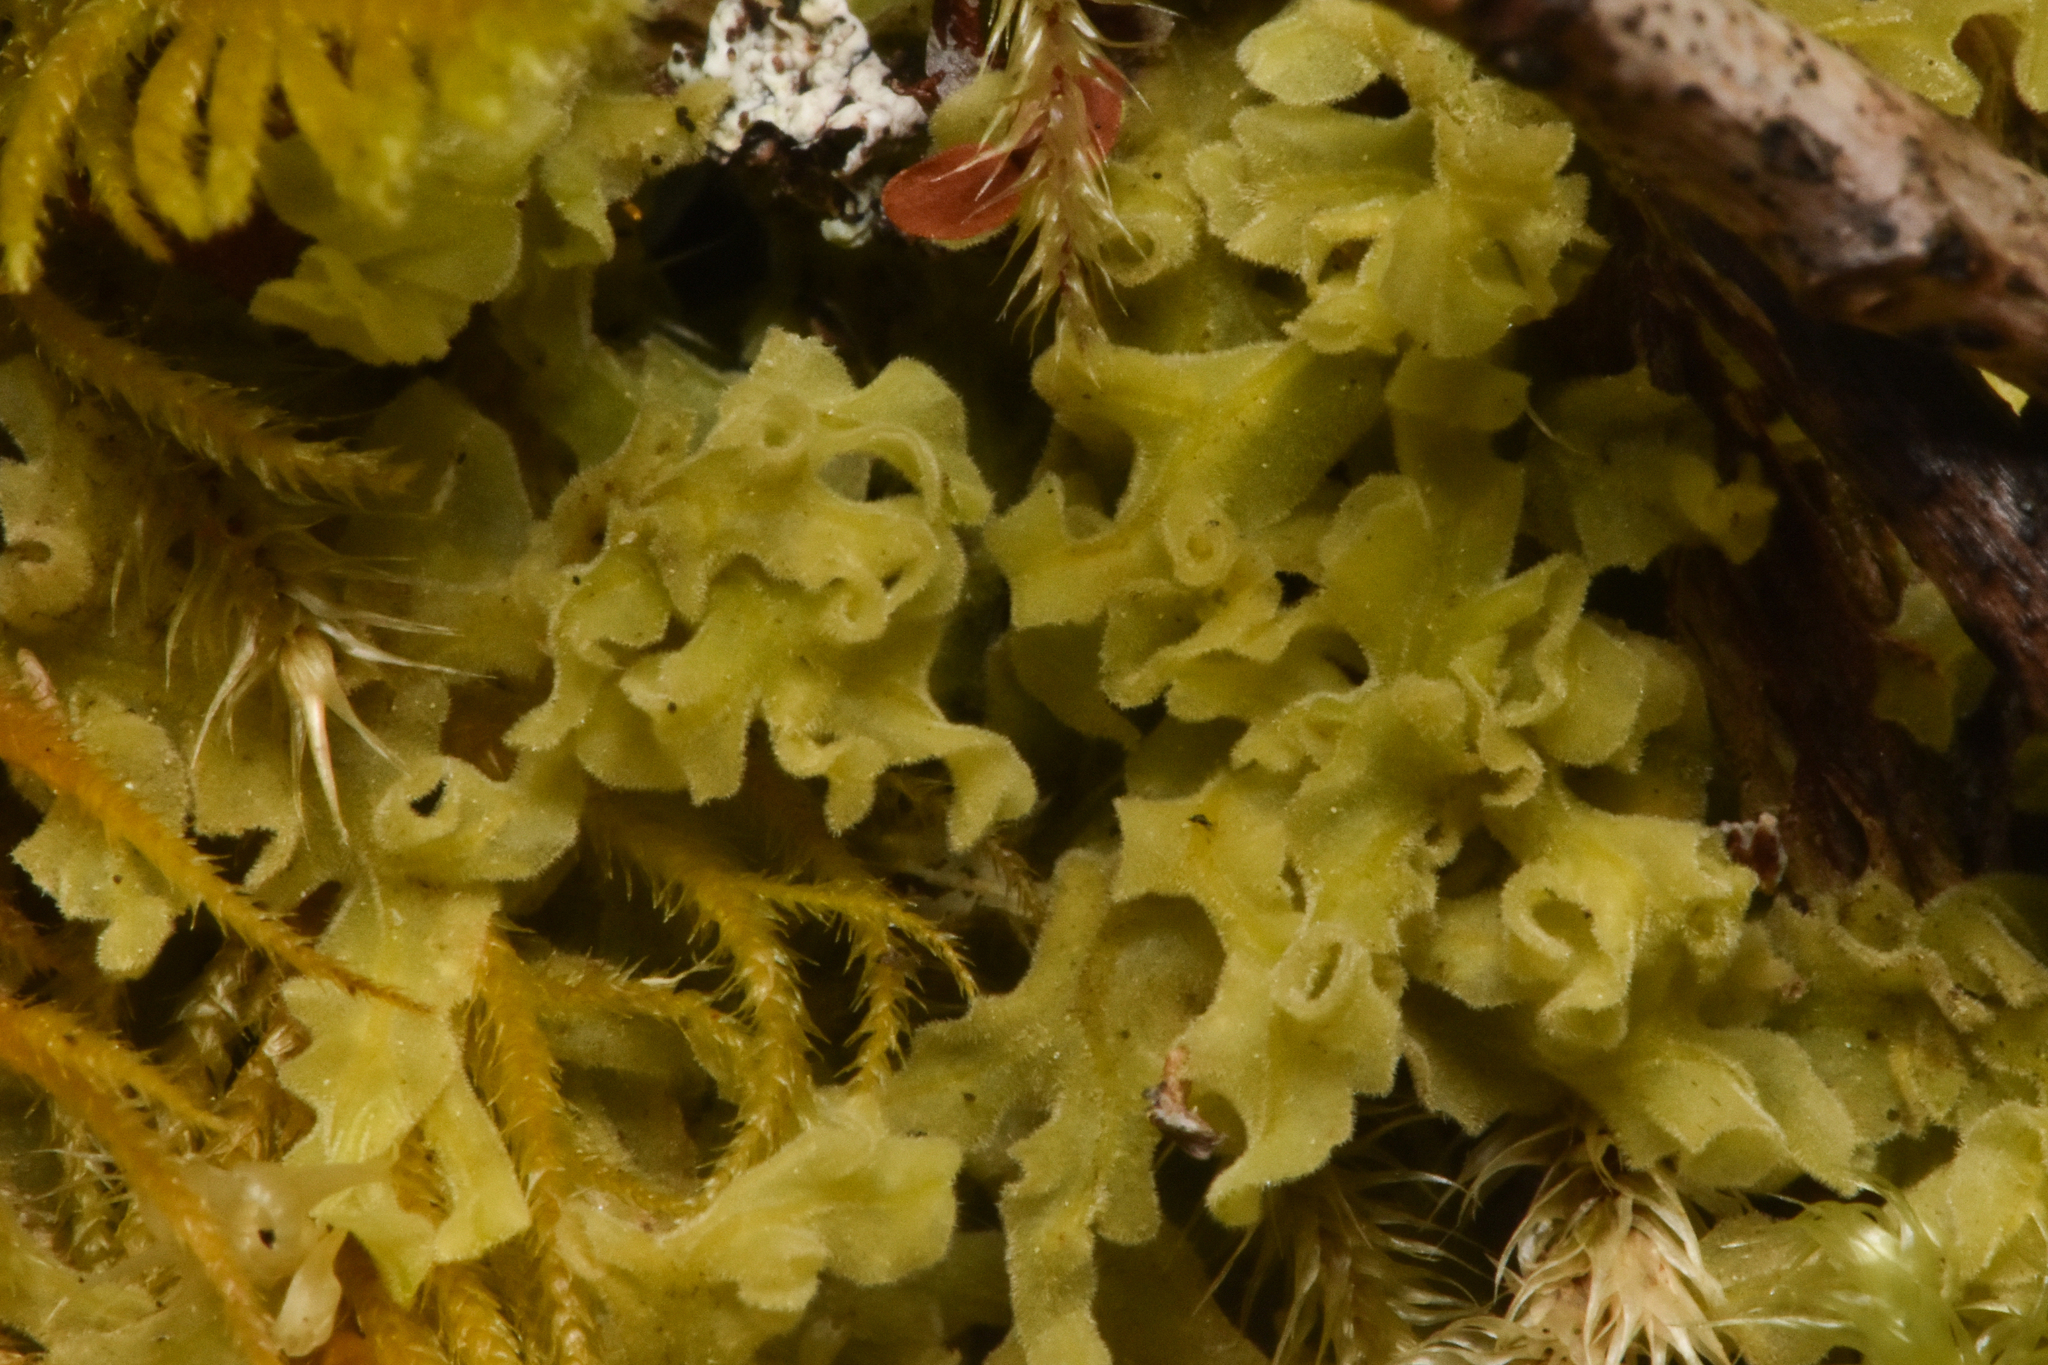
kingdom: Plantae
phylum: Marchantiophyta
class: Jungermanniopsida
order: Metzgeriales
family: Metzgeriaceae
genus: Metzgeria
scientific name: Metzgeria pubescens
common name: Downy veilwort
